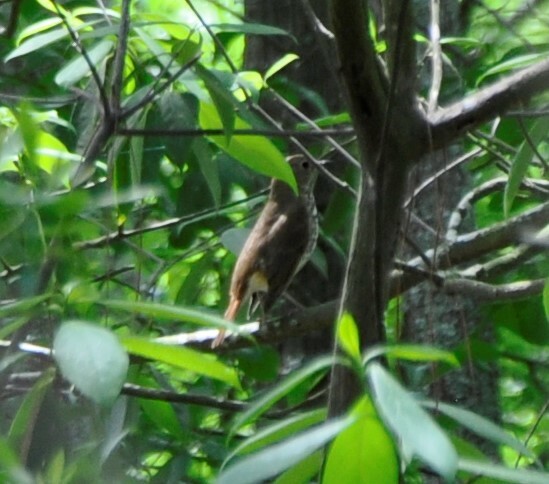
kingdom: Animalia
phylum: Chordata
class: Aves
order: Passeriformes
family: Turdidae
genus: Catharus
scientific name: Catharus guttatus
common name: Hermit thrush
